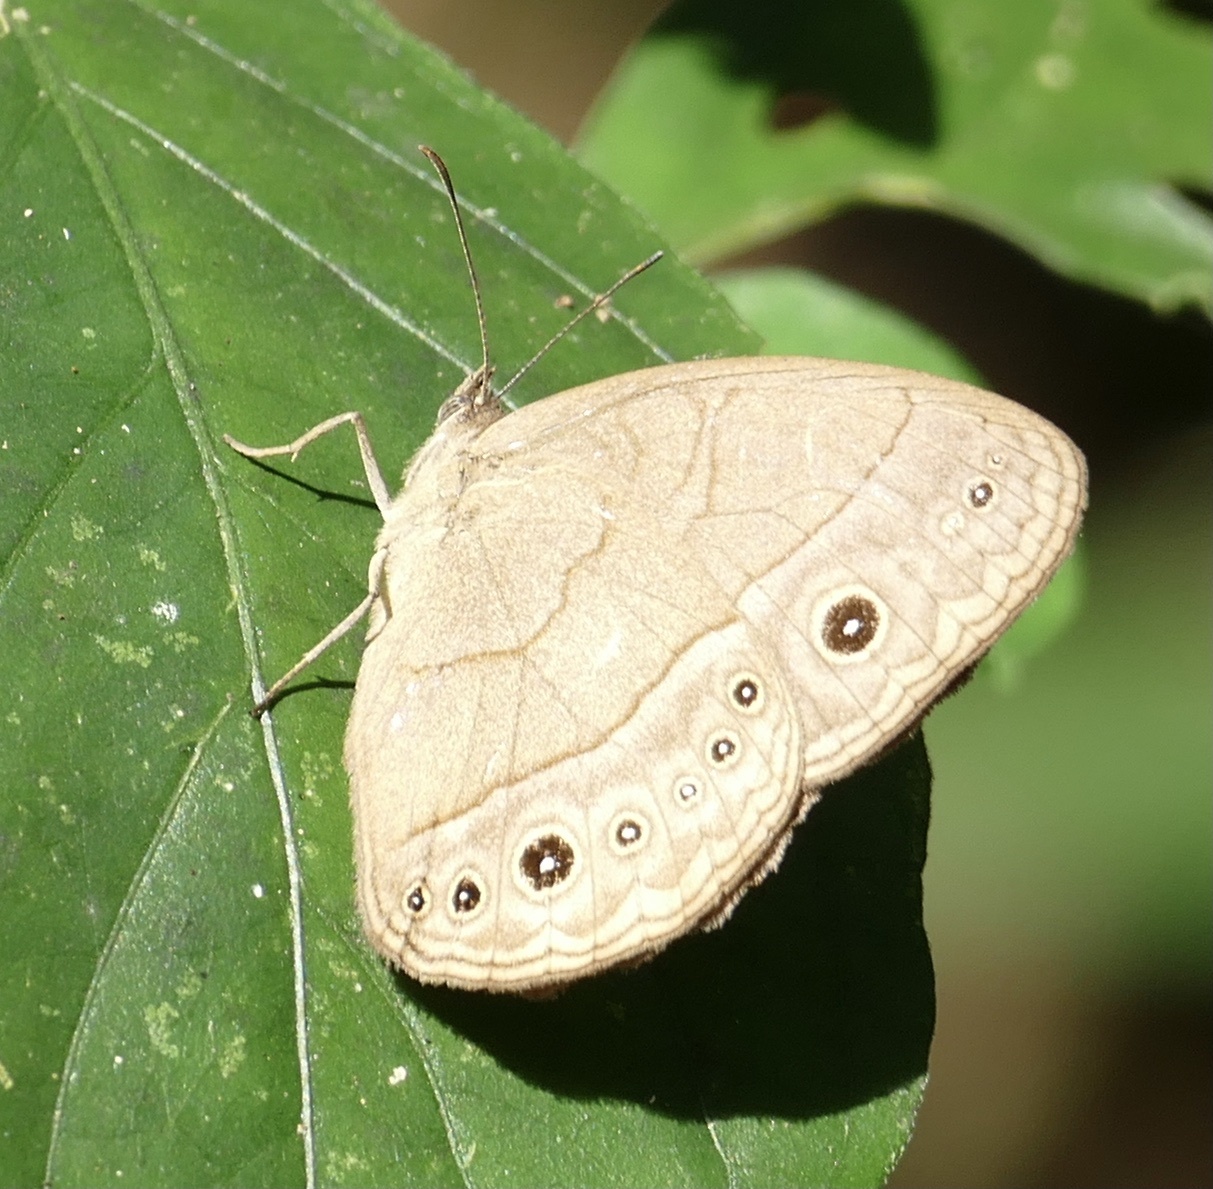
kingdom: Animalia
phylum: Arthropoda
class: Insecta
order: Lepidoptera
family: Nymphalidae
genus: Mycalesis
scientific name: Mycalesis rhacotis
